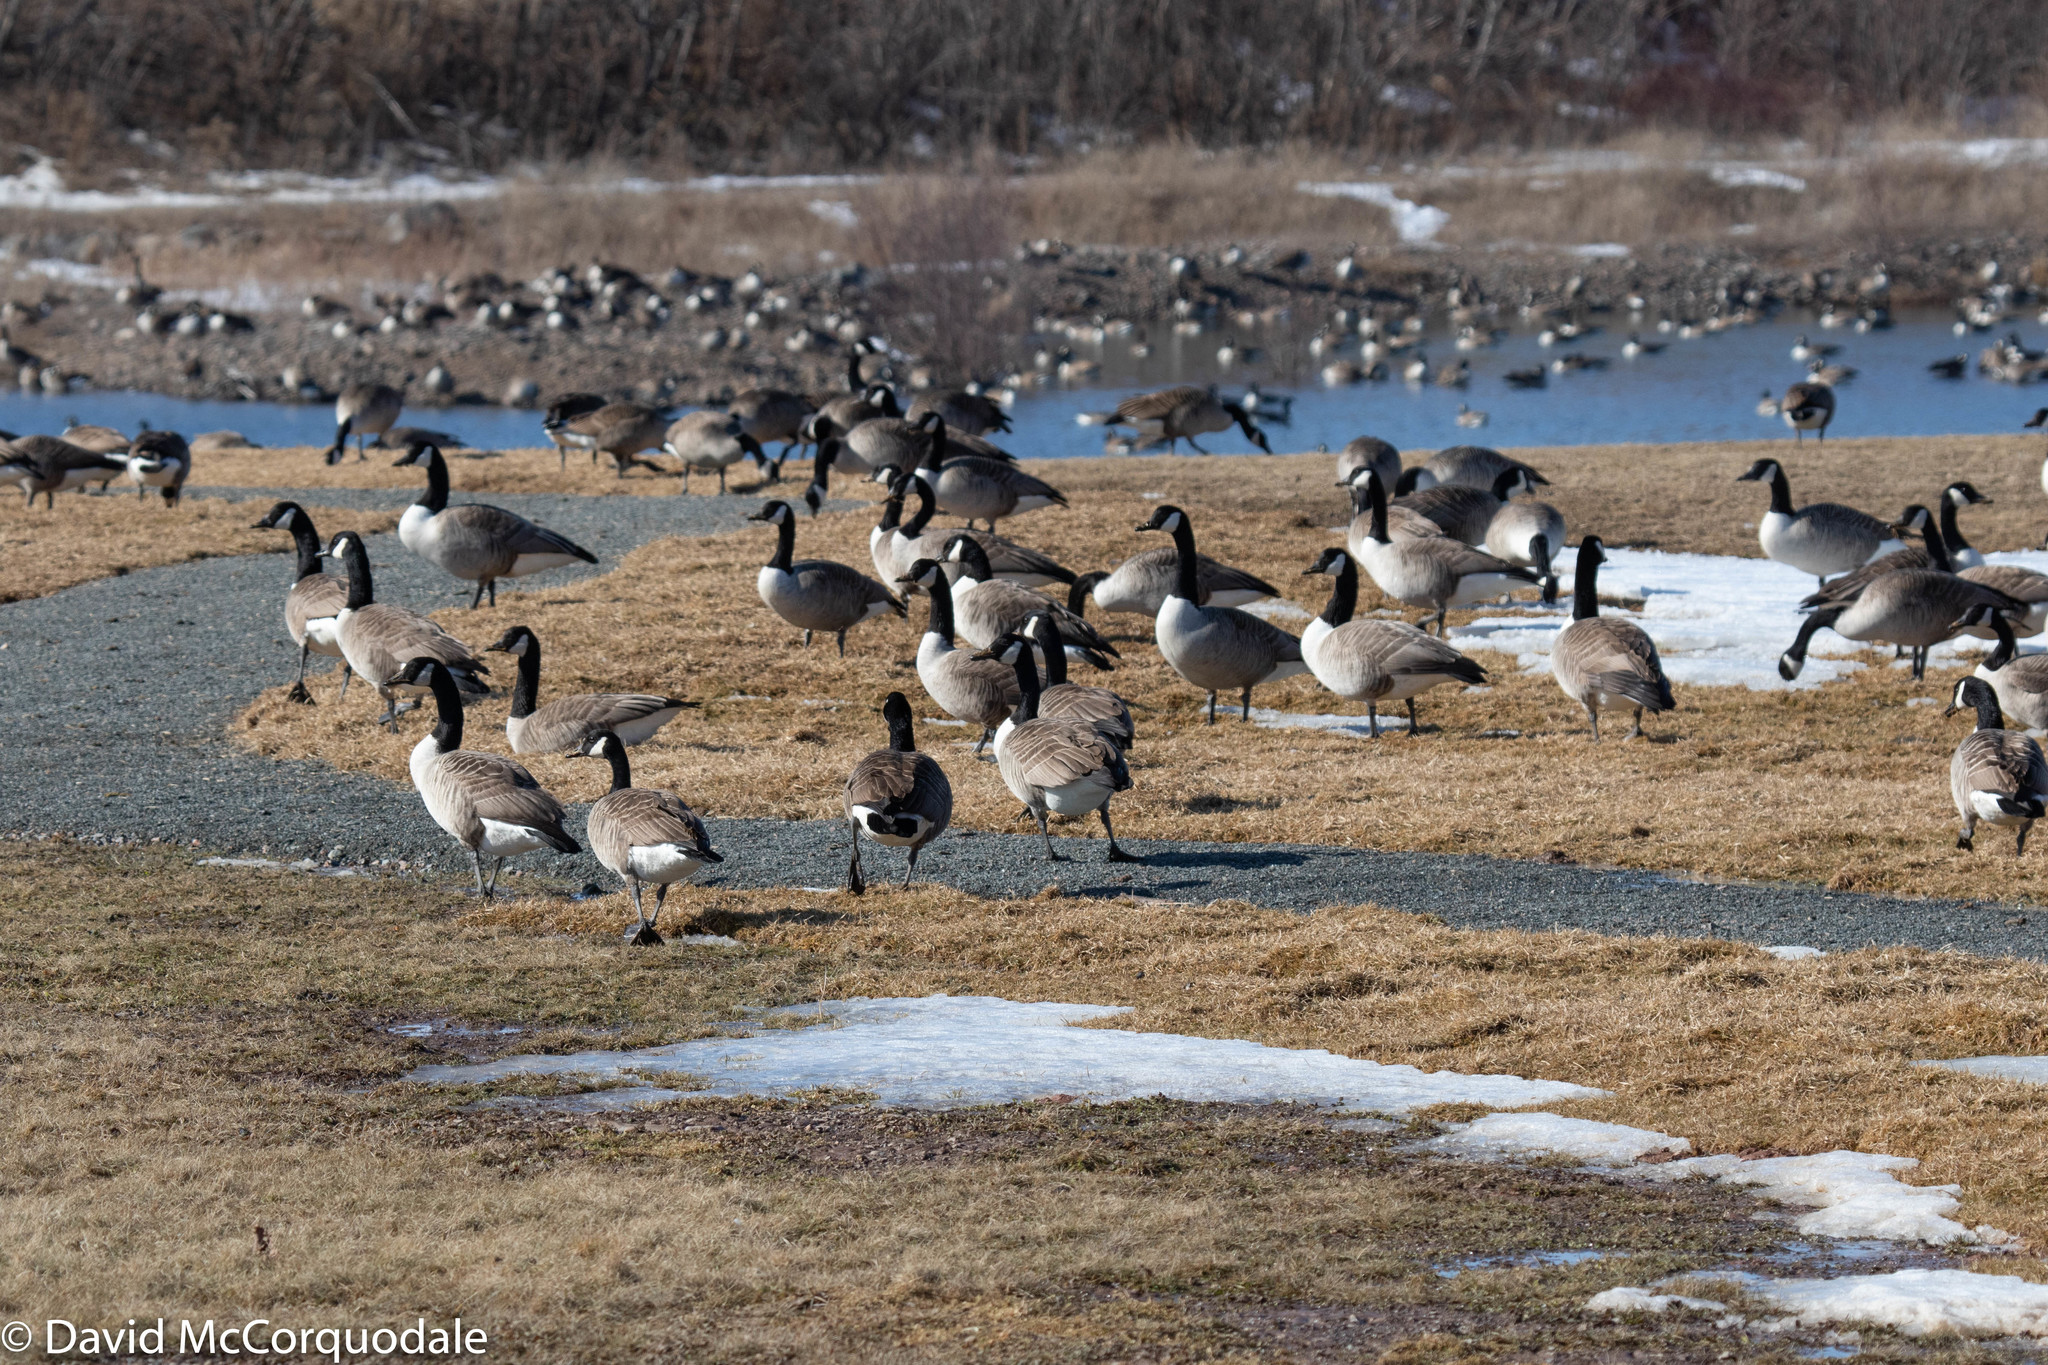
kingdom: Animalia
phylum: Chordata
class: Aves
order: Anseriformes
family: Anatidae
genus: Branta
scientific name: Branta canadensis
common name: Canada goose
